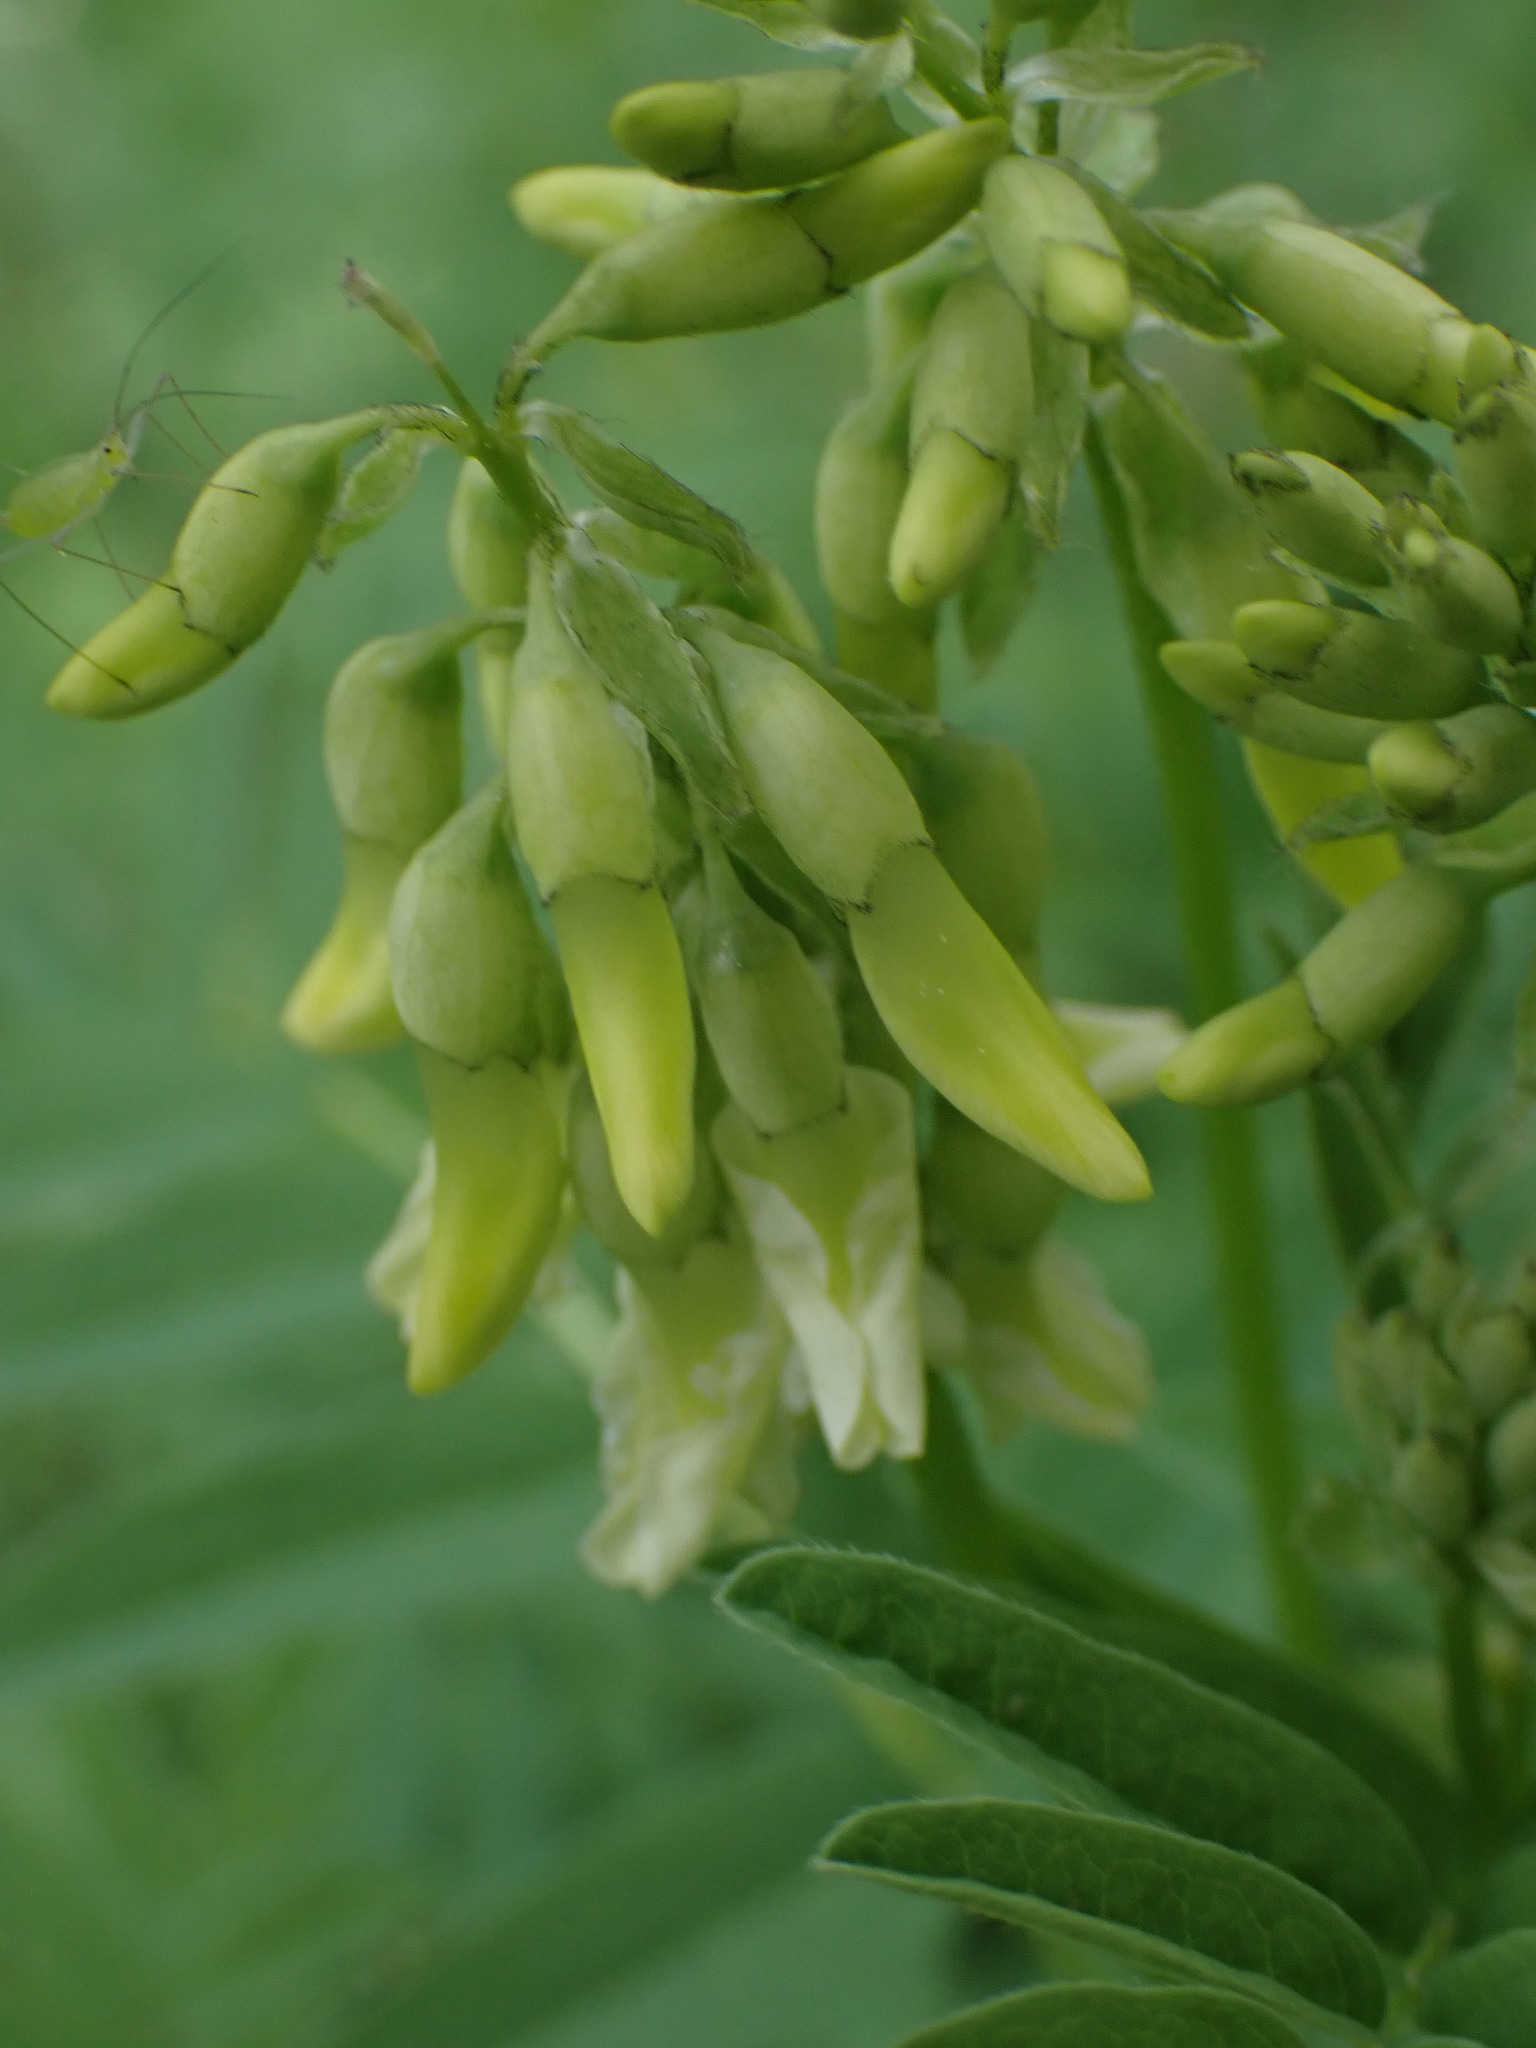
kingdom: Plantae
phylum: Tracheophyta
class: Magnoliopsida
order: Fabales
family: Fabaceae
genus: Astragalus
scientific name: Astragalus americanus
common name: American milk-vetch
